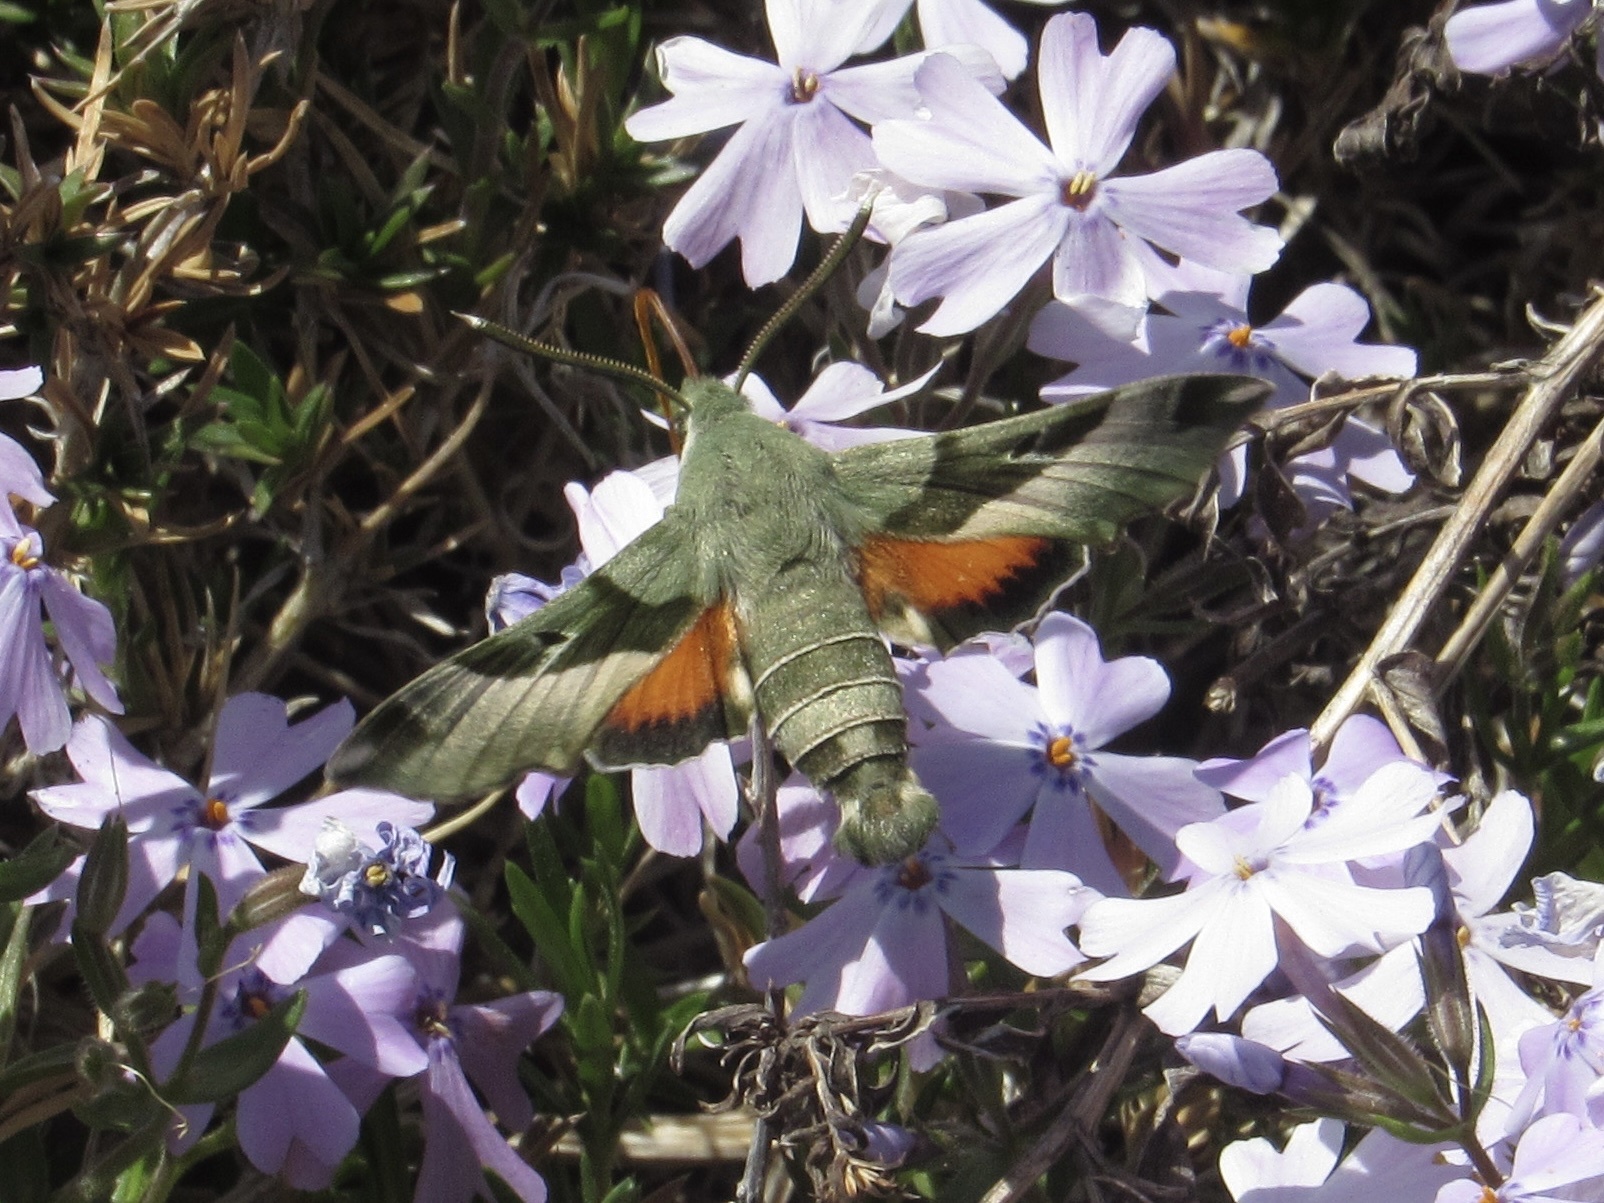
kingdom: Animalia
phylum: Arthropoda
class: Insecta
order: Lepidoptera
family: Sphingidae
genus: Proserpinus
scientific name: Proserpinus juanita
